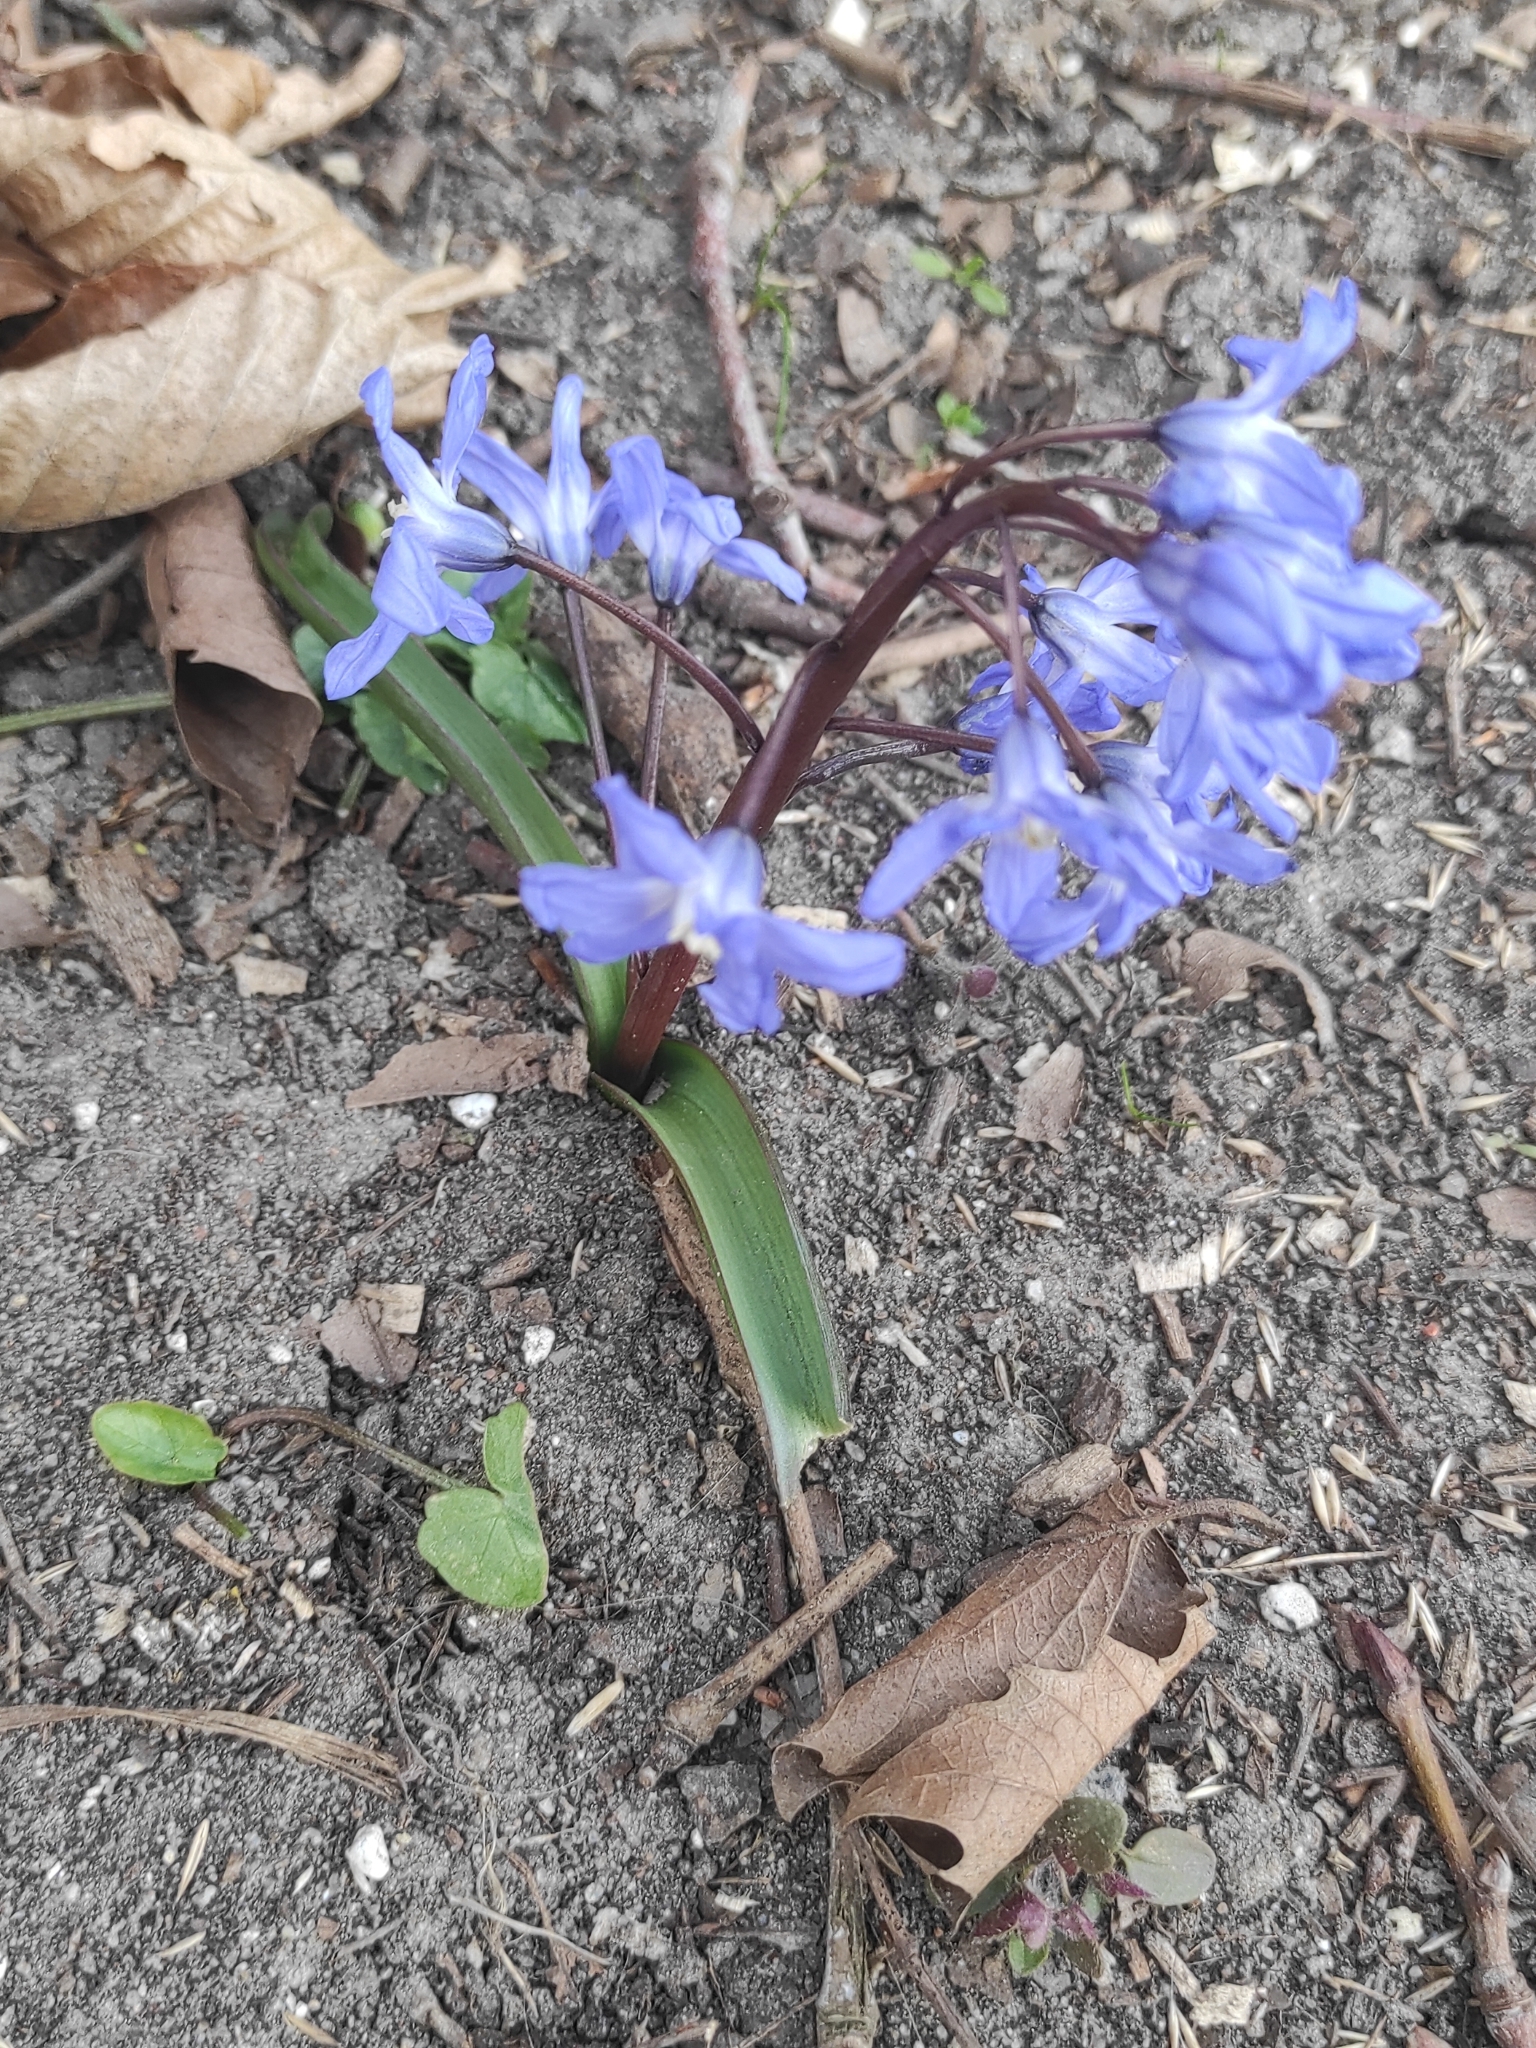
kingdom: Plantae
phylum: Tracheophyta
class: Liliopsida
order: Asparagales
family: Asparagaceae
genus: Scilla
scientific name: Scilla forbesii
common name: Glory-of-the-snow
